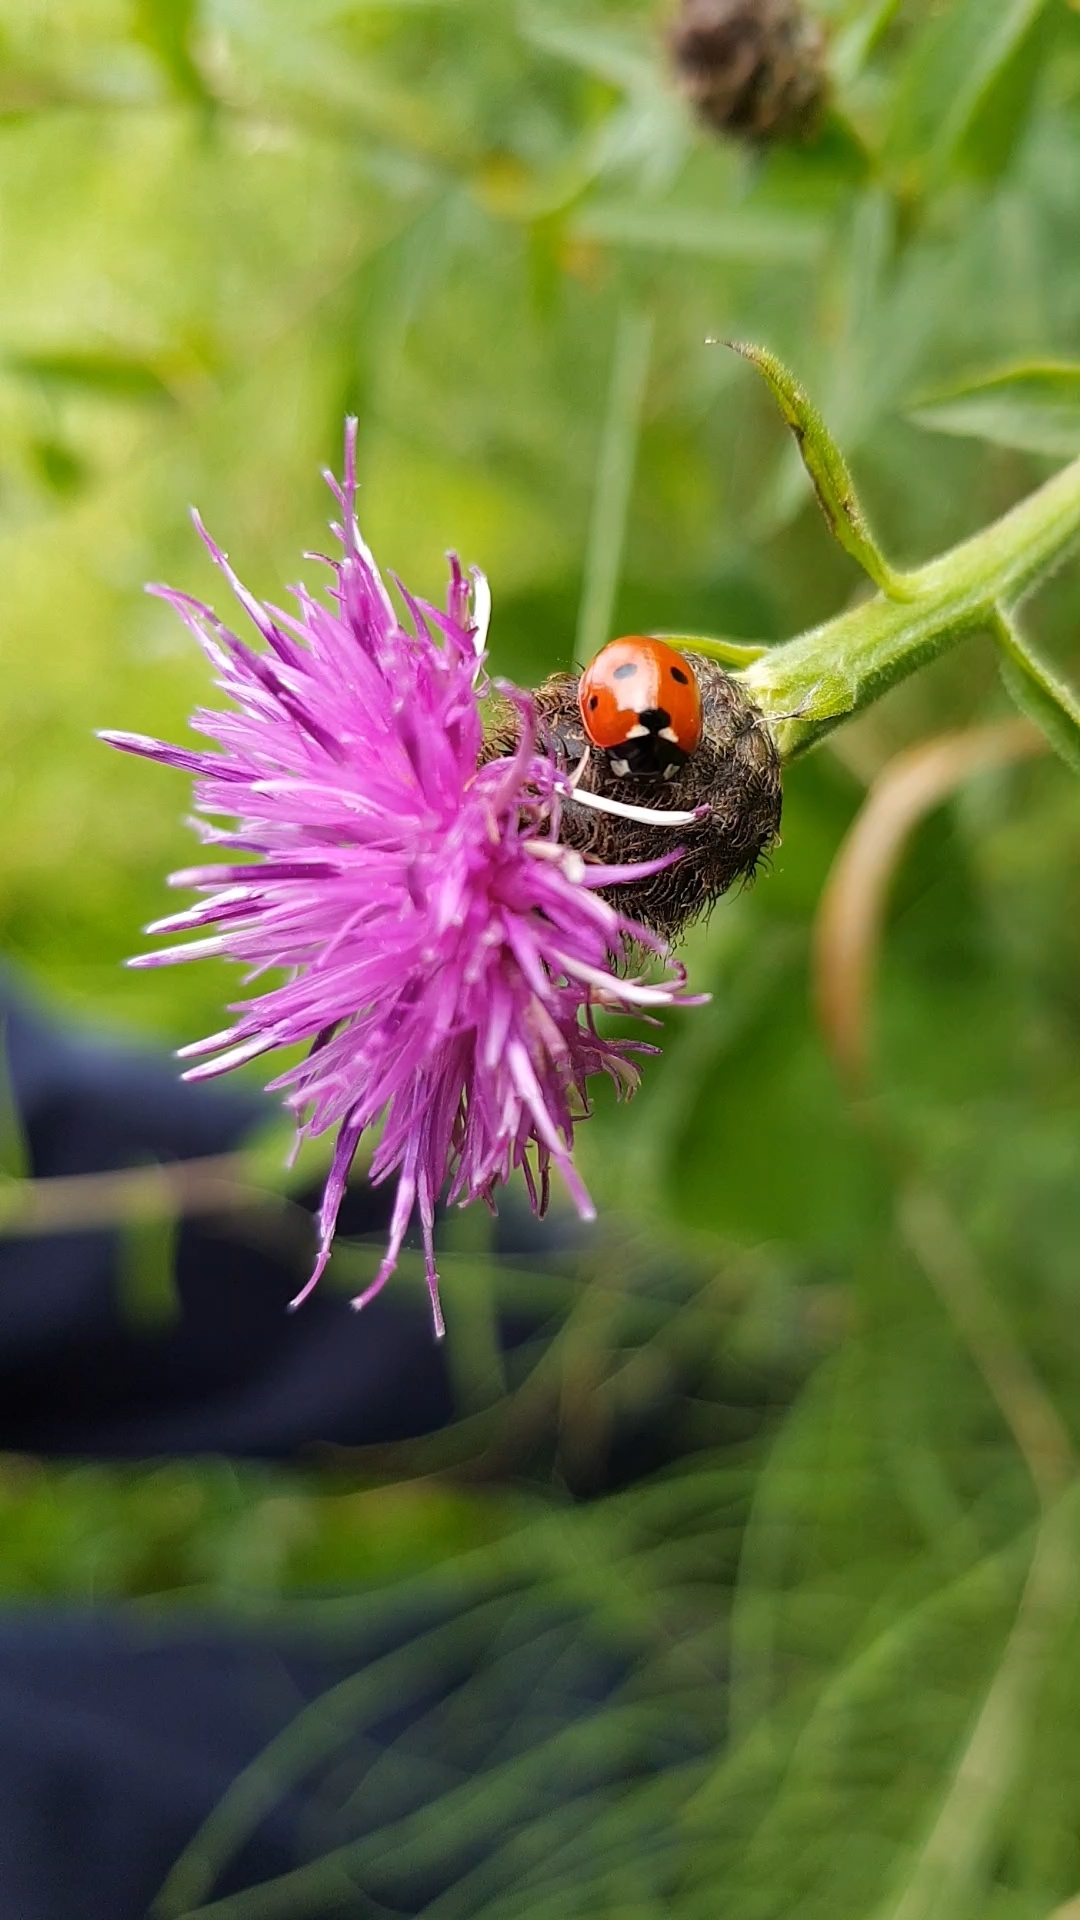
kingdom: Animalia
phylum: Arthropoda
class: Insecta
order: Coleoptera
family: Coccinellidae
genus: Coccinella
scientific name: Coccinella septempunctata
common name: Sevenspotted lady beetle
